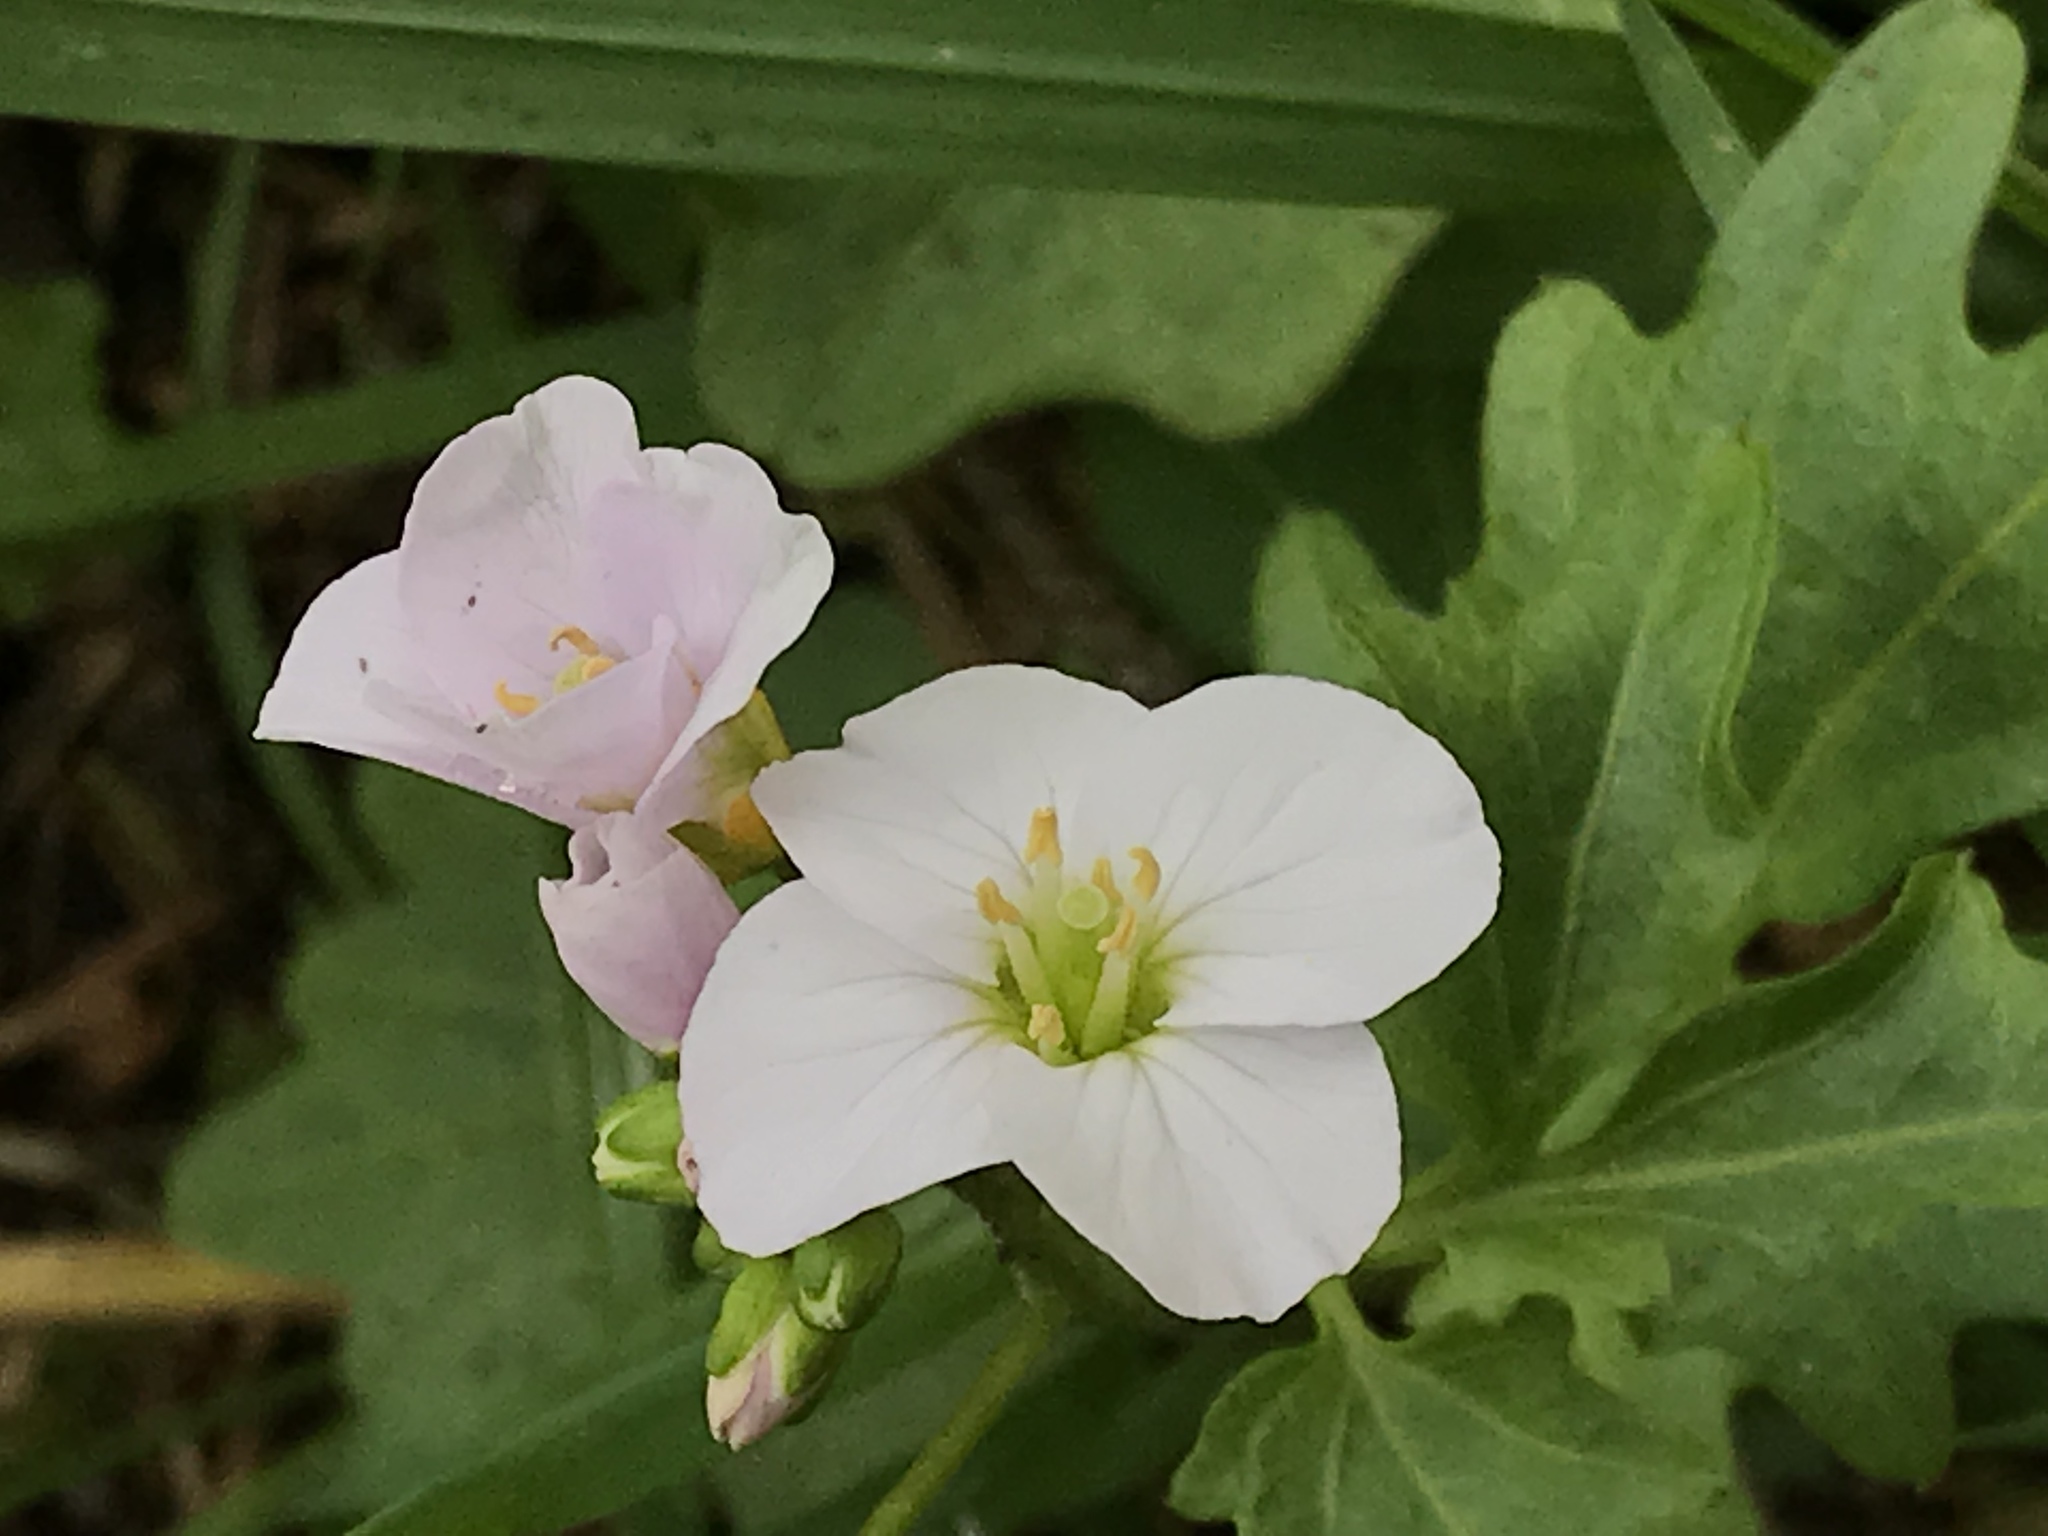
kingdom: Plantae
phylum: Tracheophyta
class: Magnoliopsida
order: Brassicales
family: Brassicaceae
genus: Cardamine
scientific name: Cardamine californica
